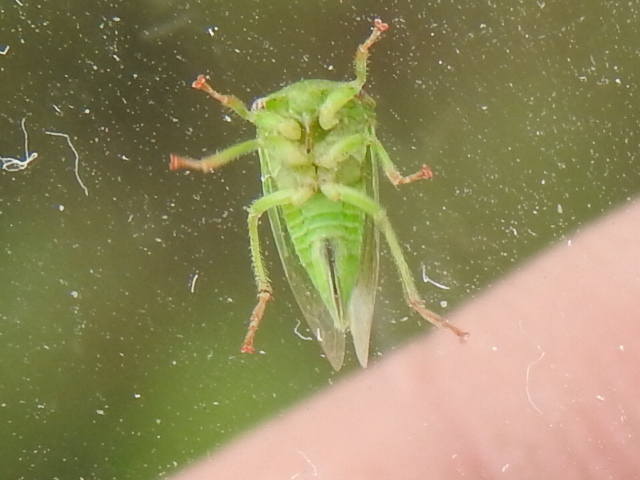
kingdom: Animalia
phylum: Arthropoda
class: Insecta
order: Hemiptera
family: Membracidae
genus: Spissistilus
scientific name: Spissistilus festina
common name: Membracid bug
